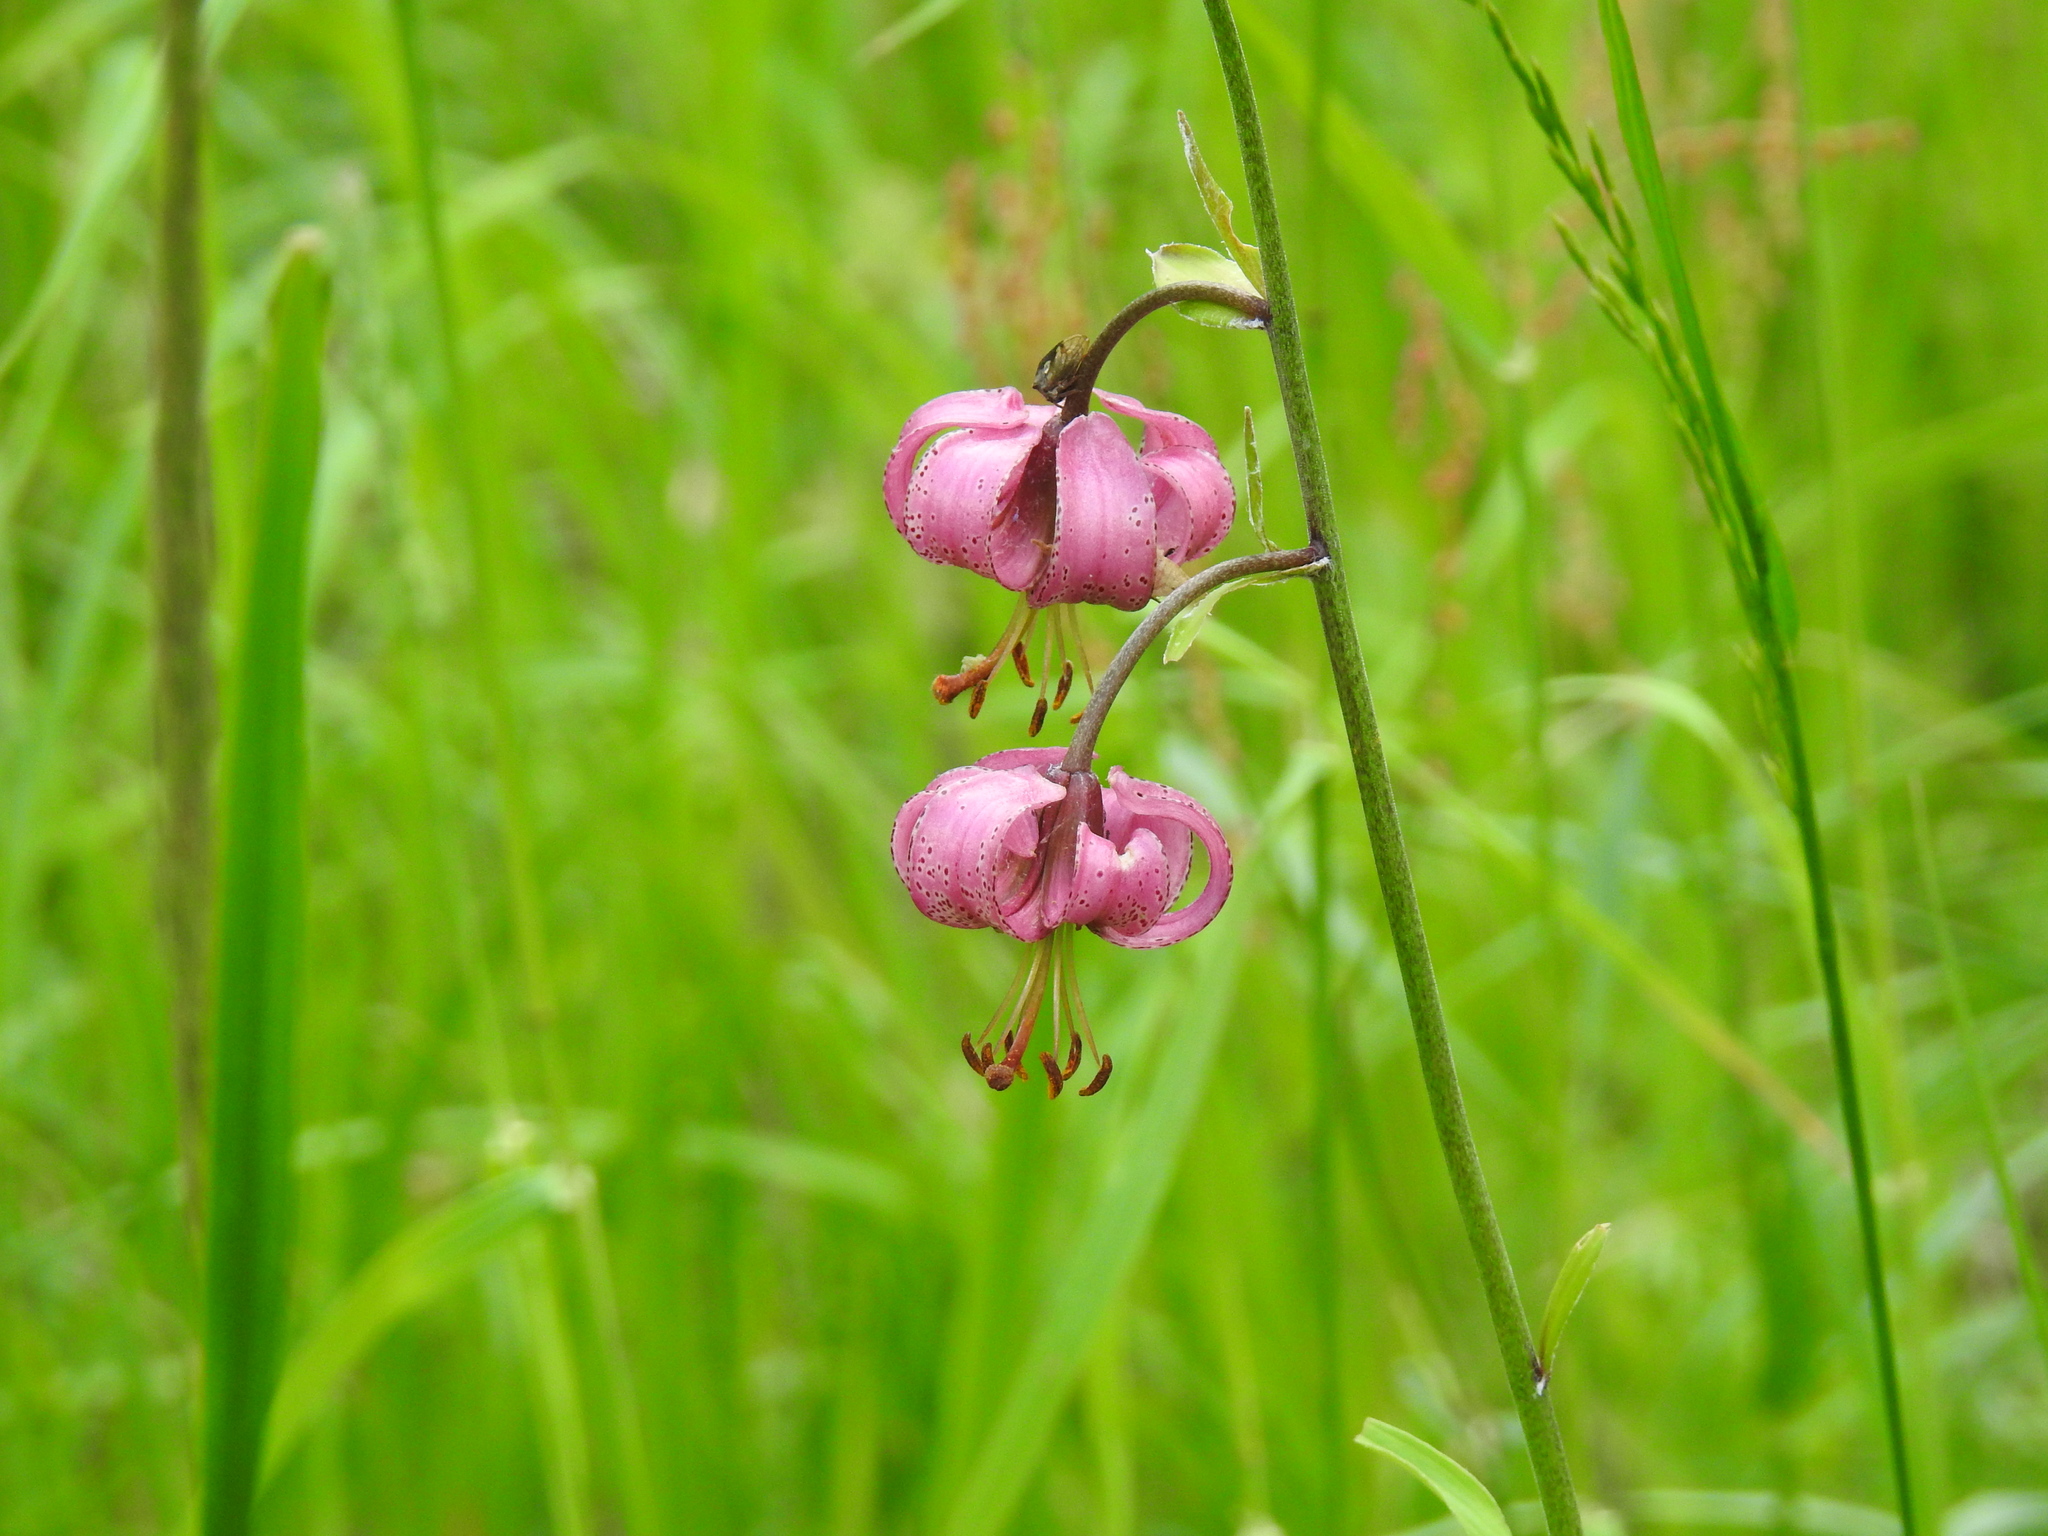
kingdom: Plantae
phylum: Tracheophyta
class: Liliopsida
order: Liliales
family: Liliaceae
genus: Lilium
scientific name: Lilium martagon
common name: Martagon lily
